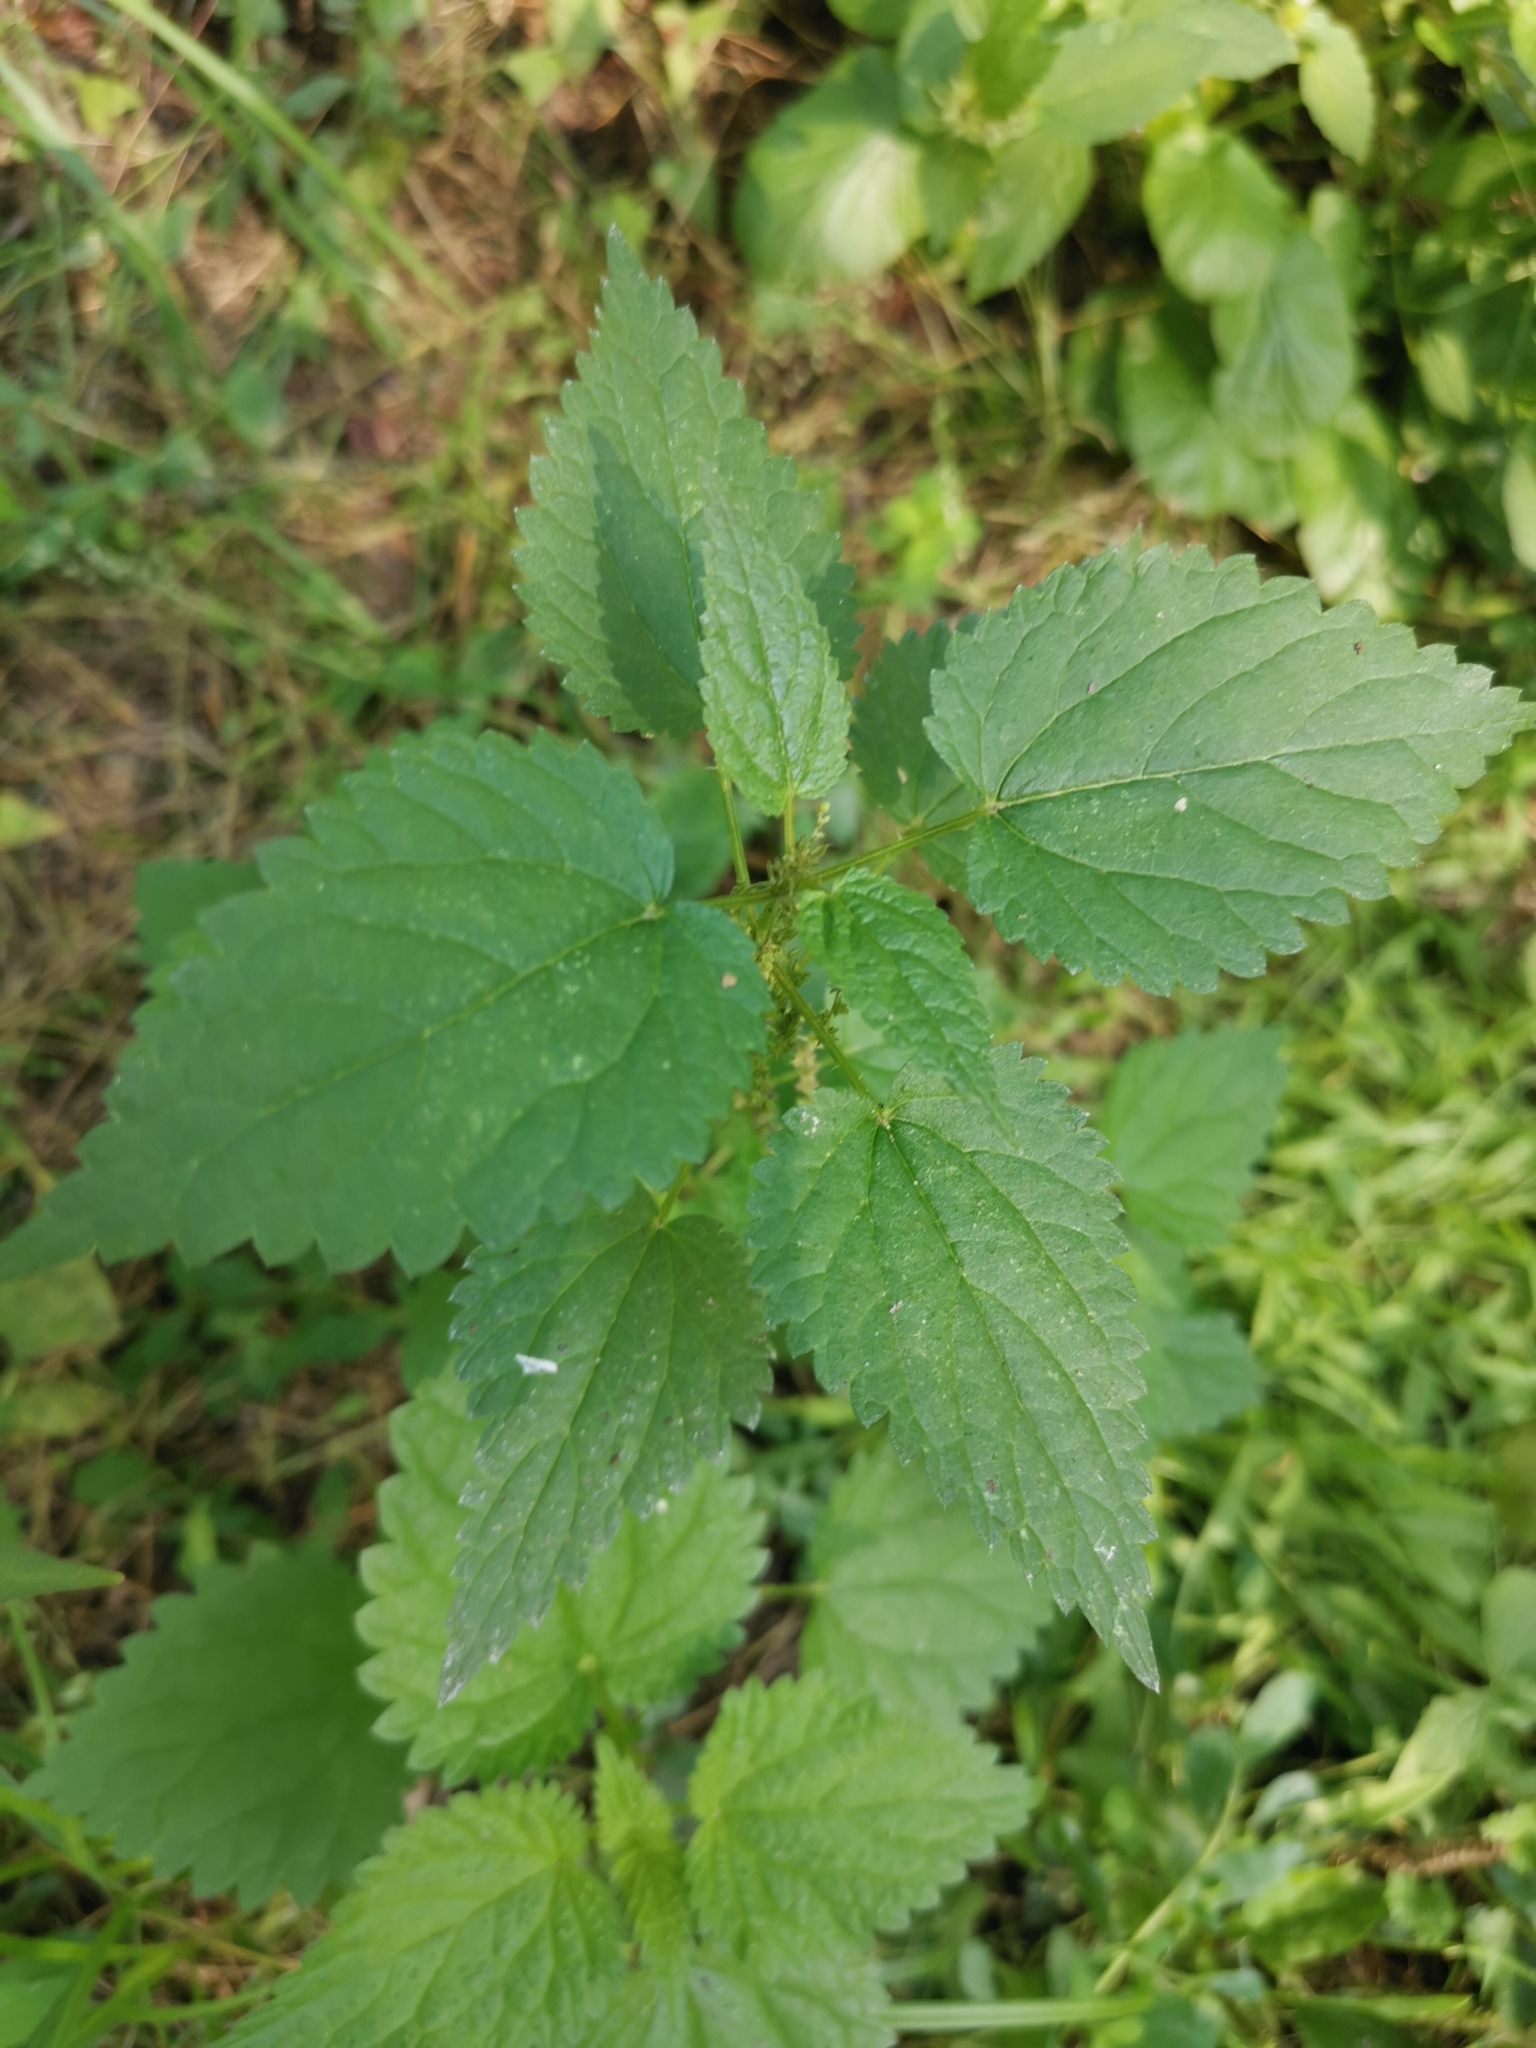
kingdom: Plantae
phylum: Tracheophyta
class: Magnoliopsida
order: Rosales
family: Urticaceae
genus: Urtica
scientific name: Urtica dioica
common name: Common nettle
